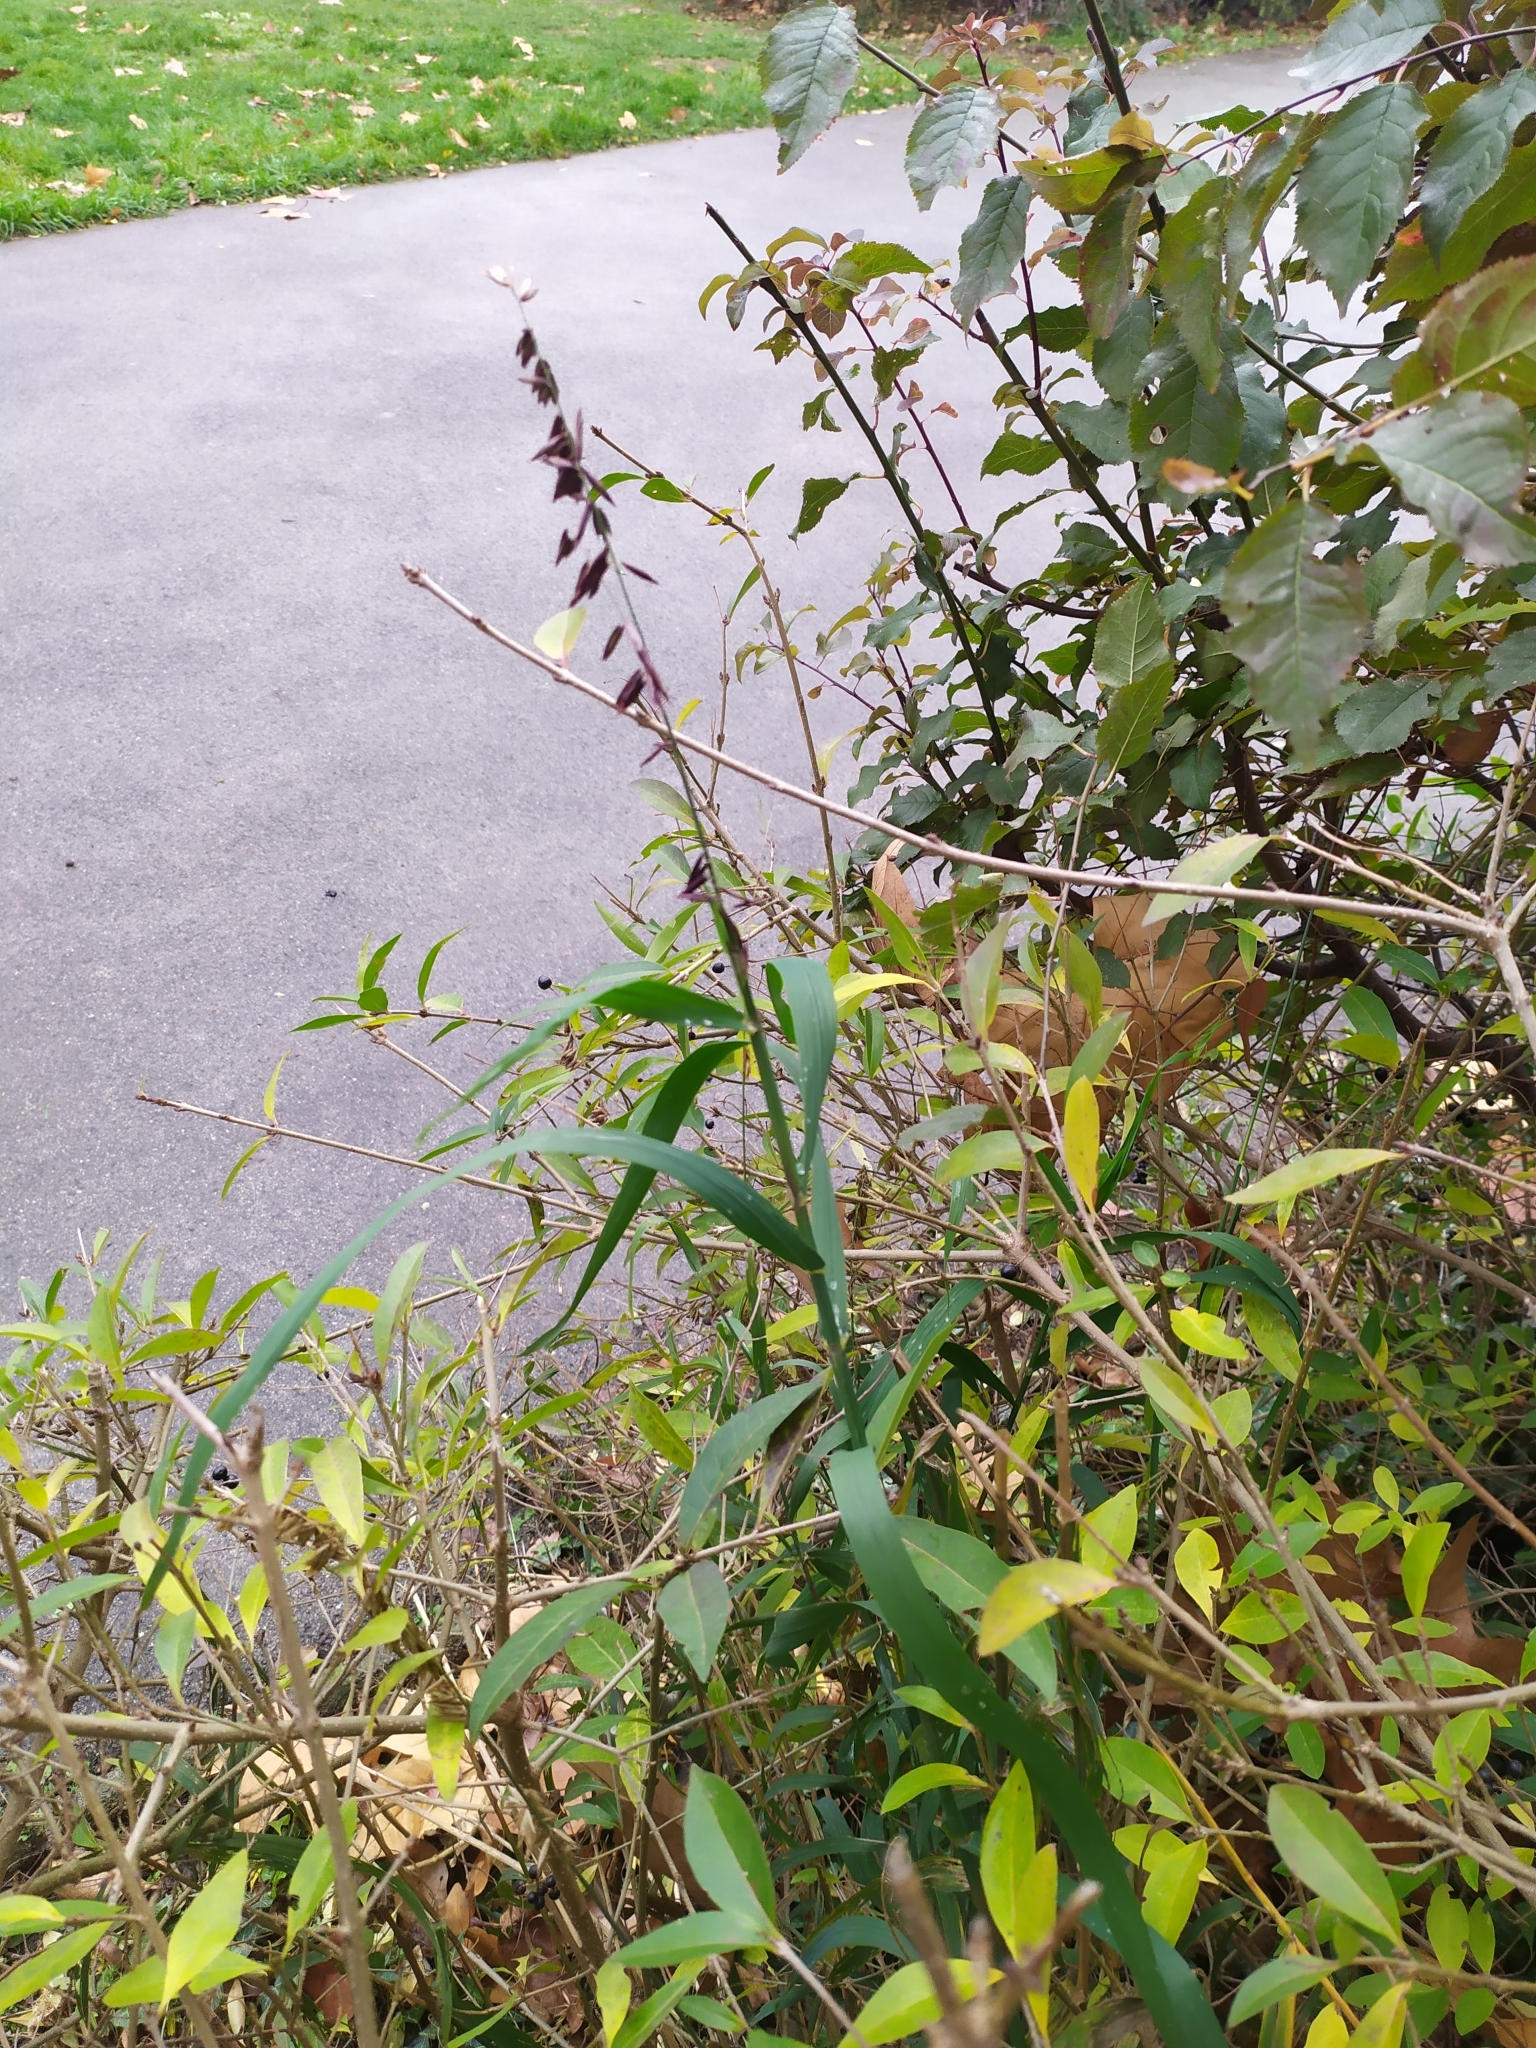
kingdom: Plantae
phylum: Tracheophyta
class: Liliopsida
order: Poales
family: Poaceae
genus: Melica
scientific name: Melica altissima
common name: Siberian melicgrass
